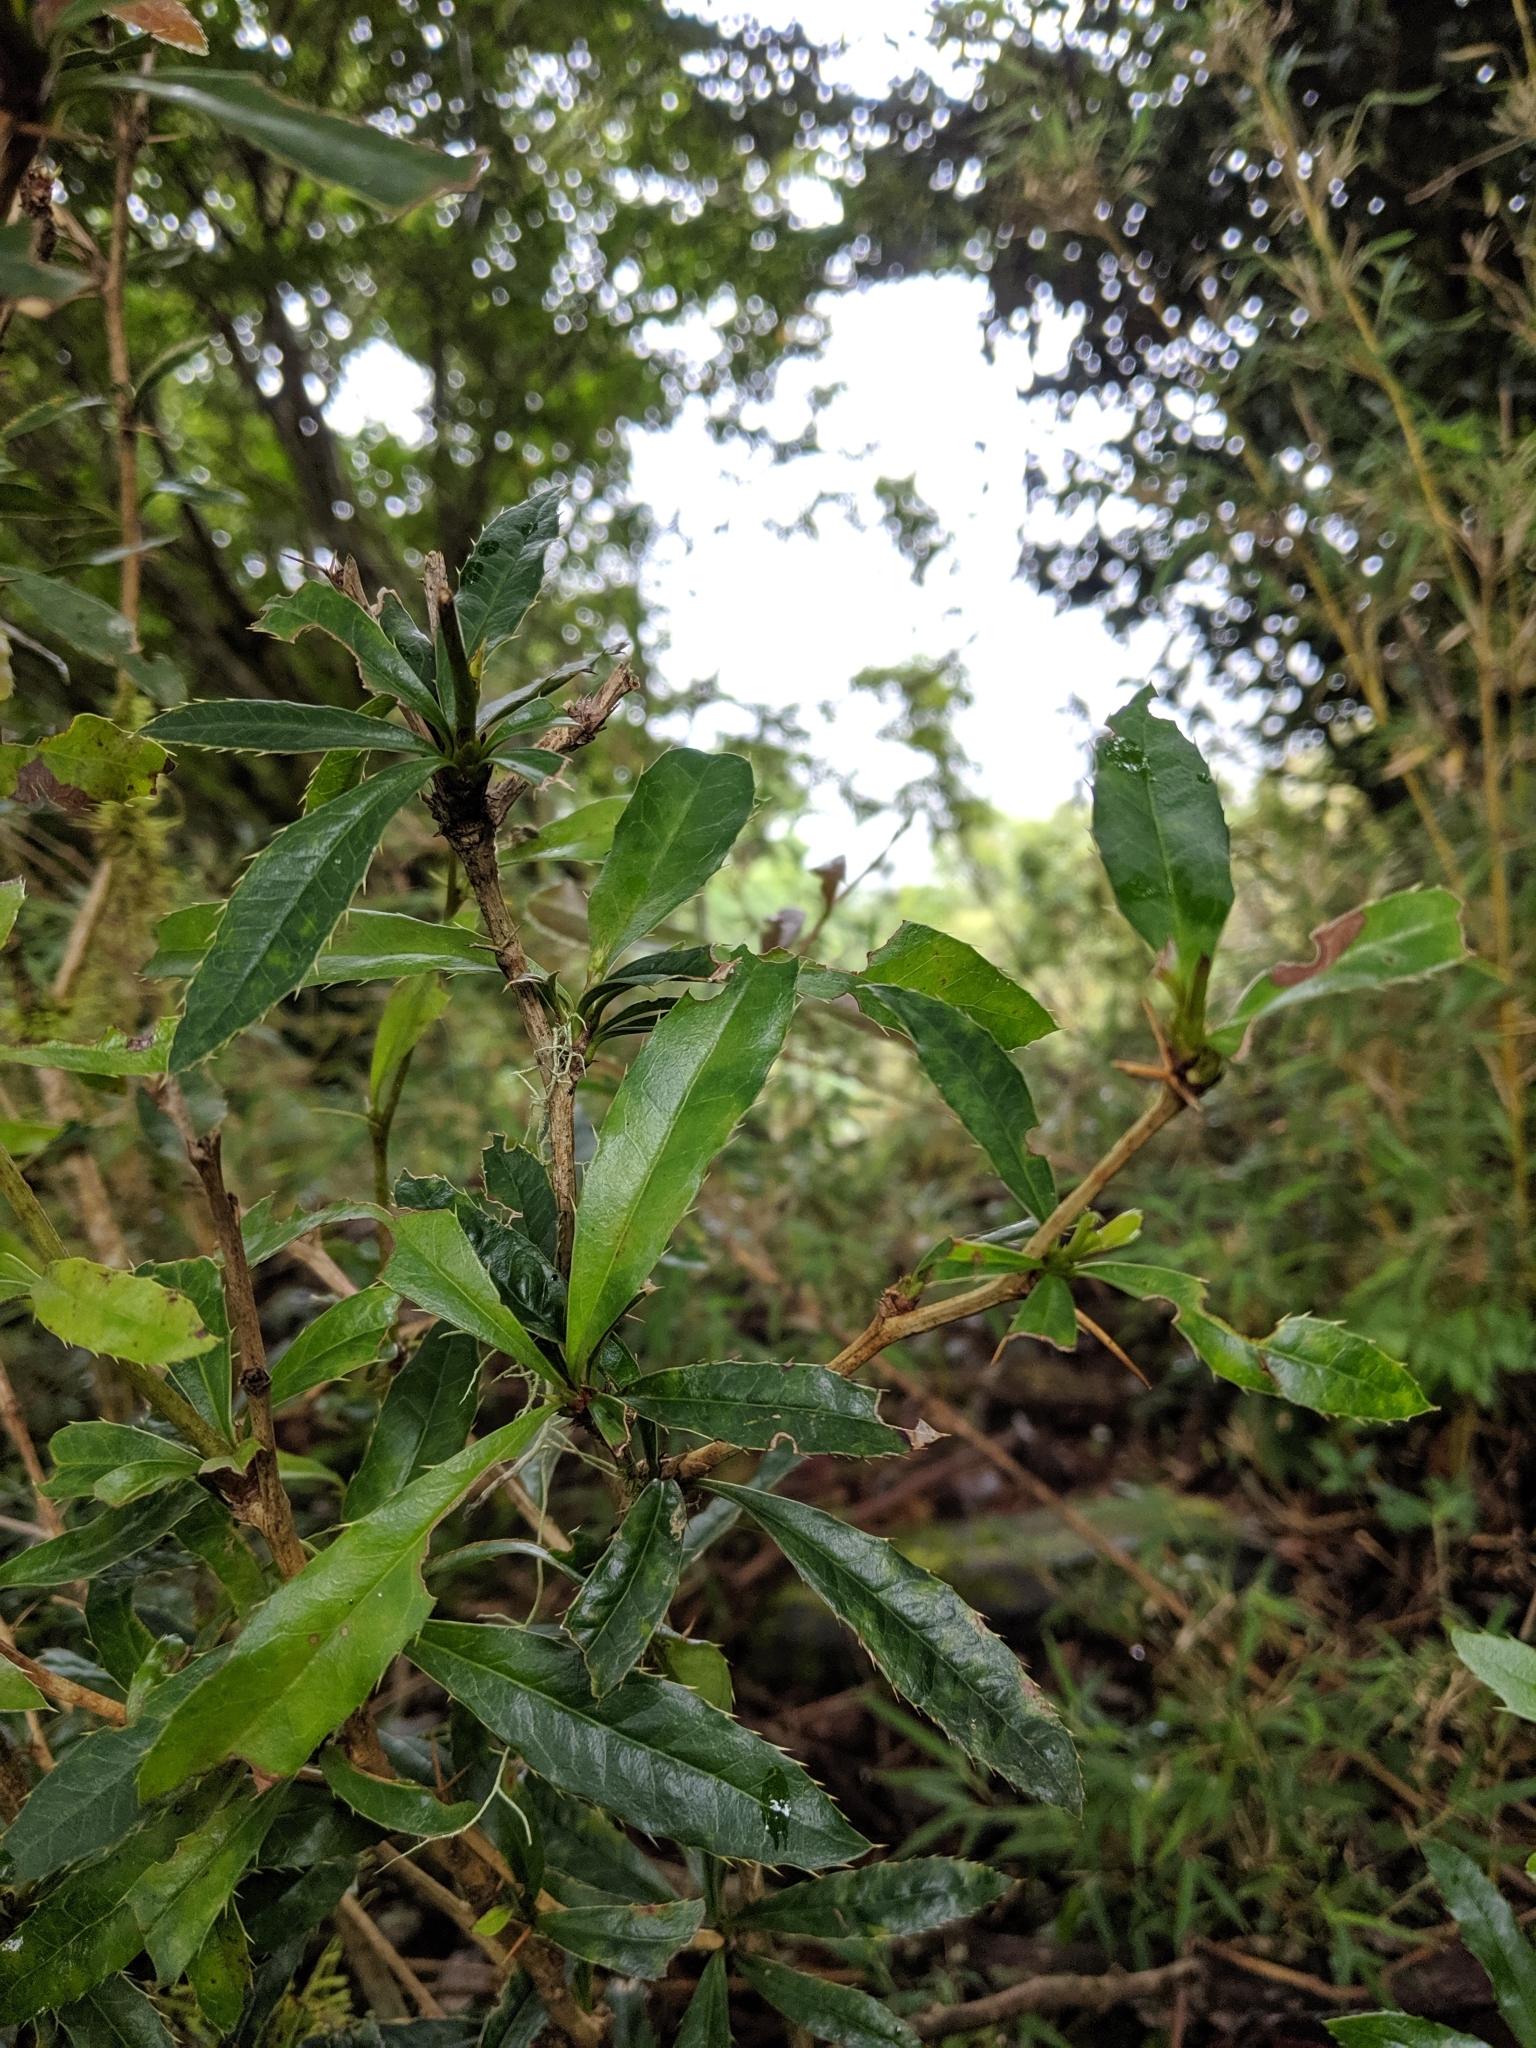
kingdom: Plantae
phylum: Tracheophyta
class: Magnoliopsida
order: Ranunculales
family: Berberidaceae
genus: Berberis
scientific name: Berberis kawakamii
